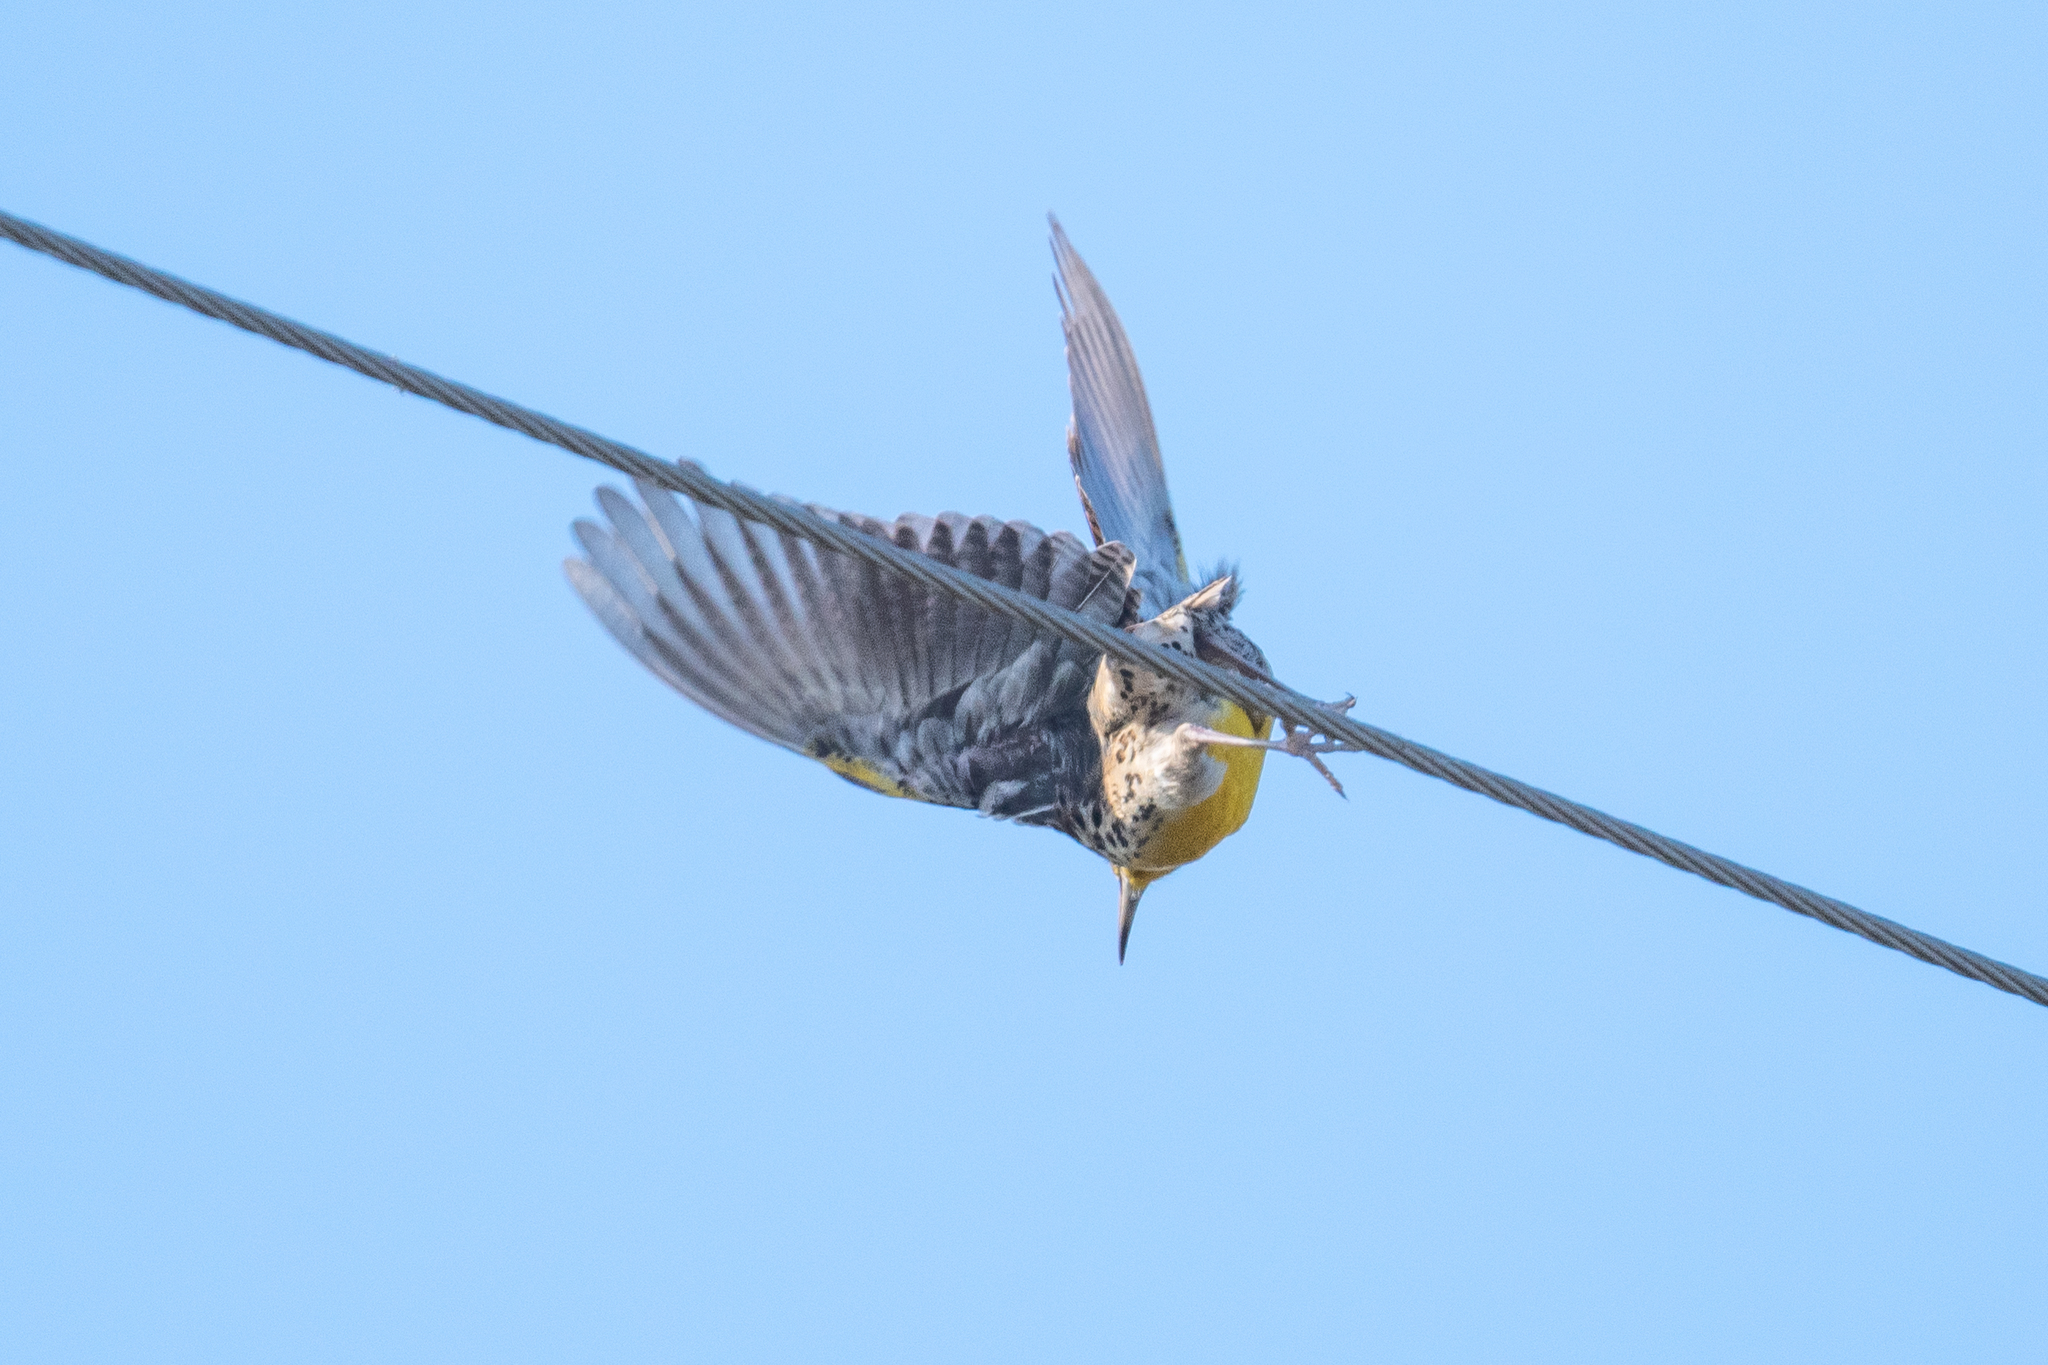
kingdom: Animalia
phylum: Chordata
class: Aves
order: Passeriformes
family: Icteridae
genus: Sturnella
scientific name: Sturnella neglecta
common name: Western meadowlark
